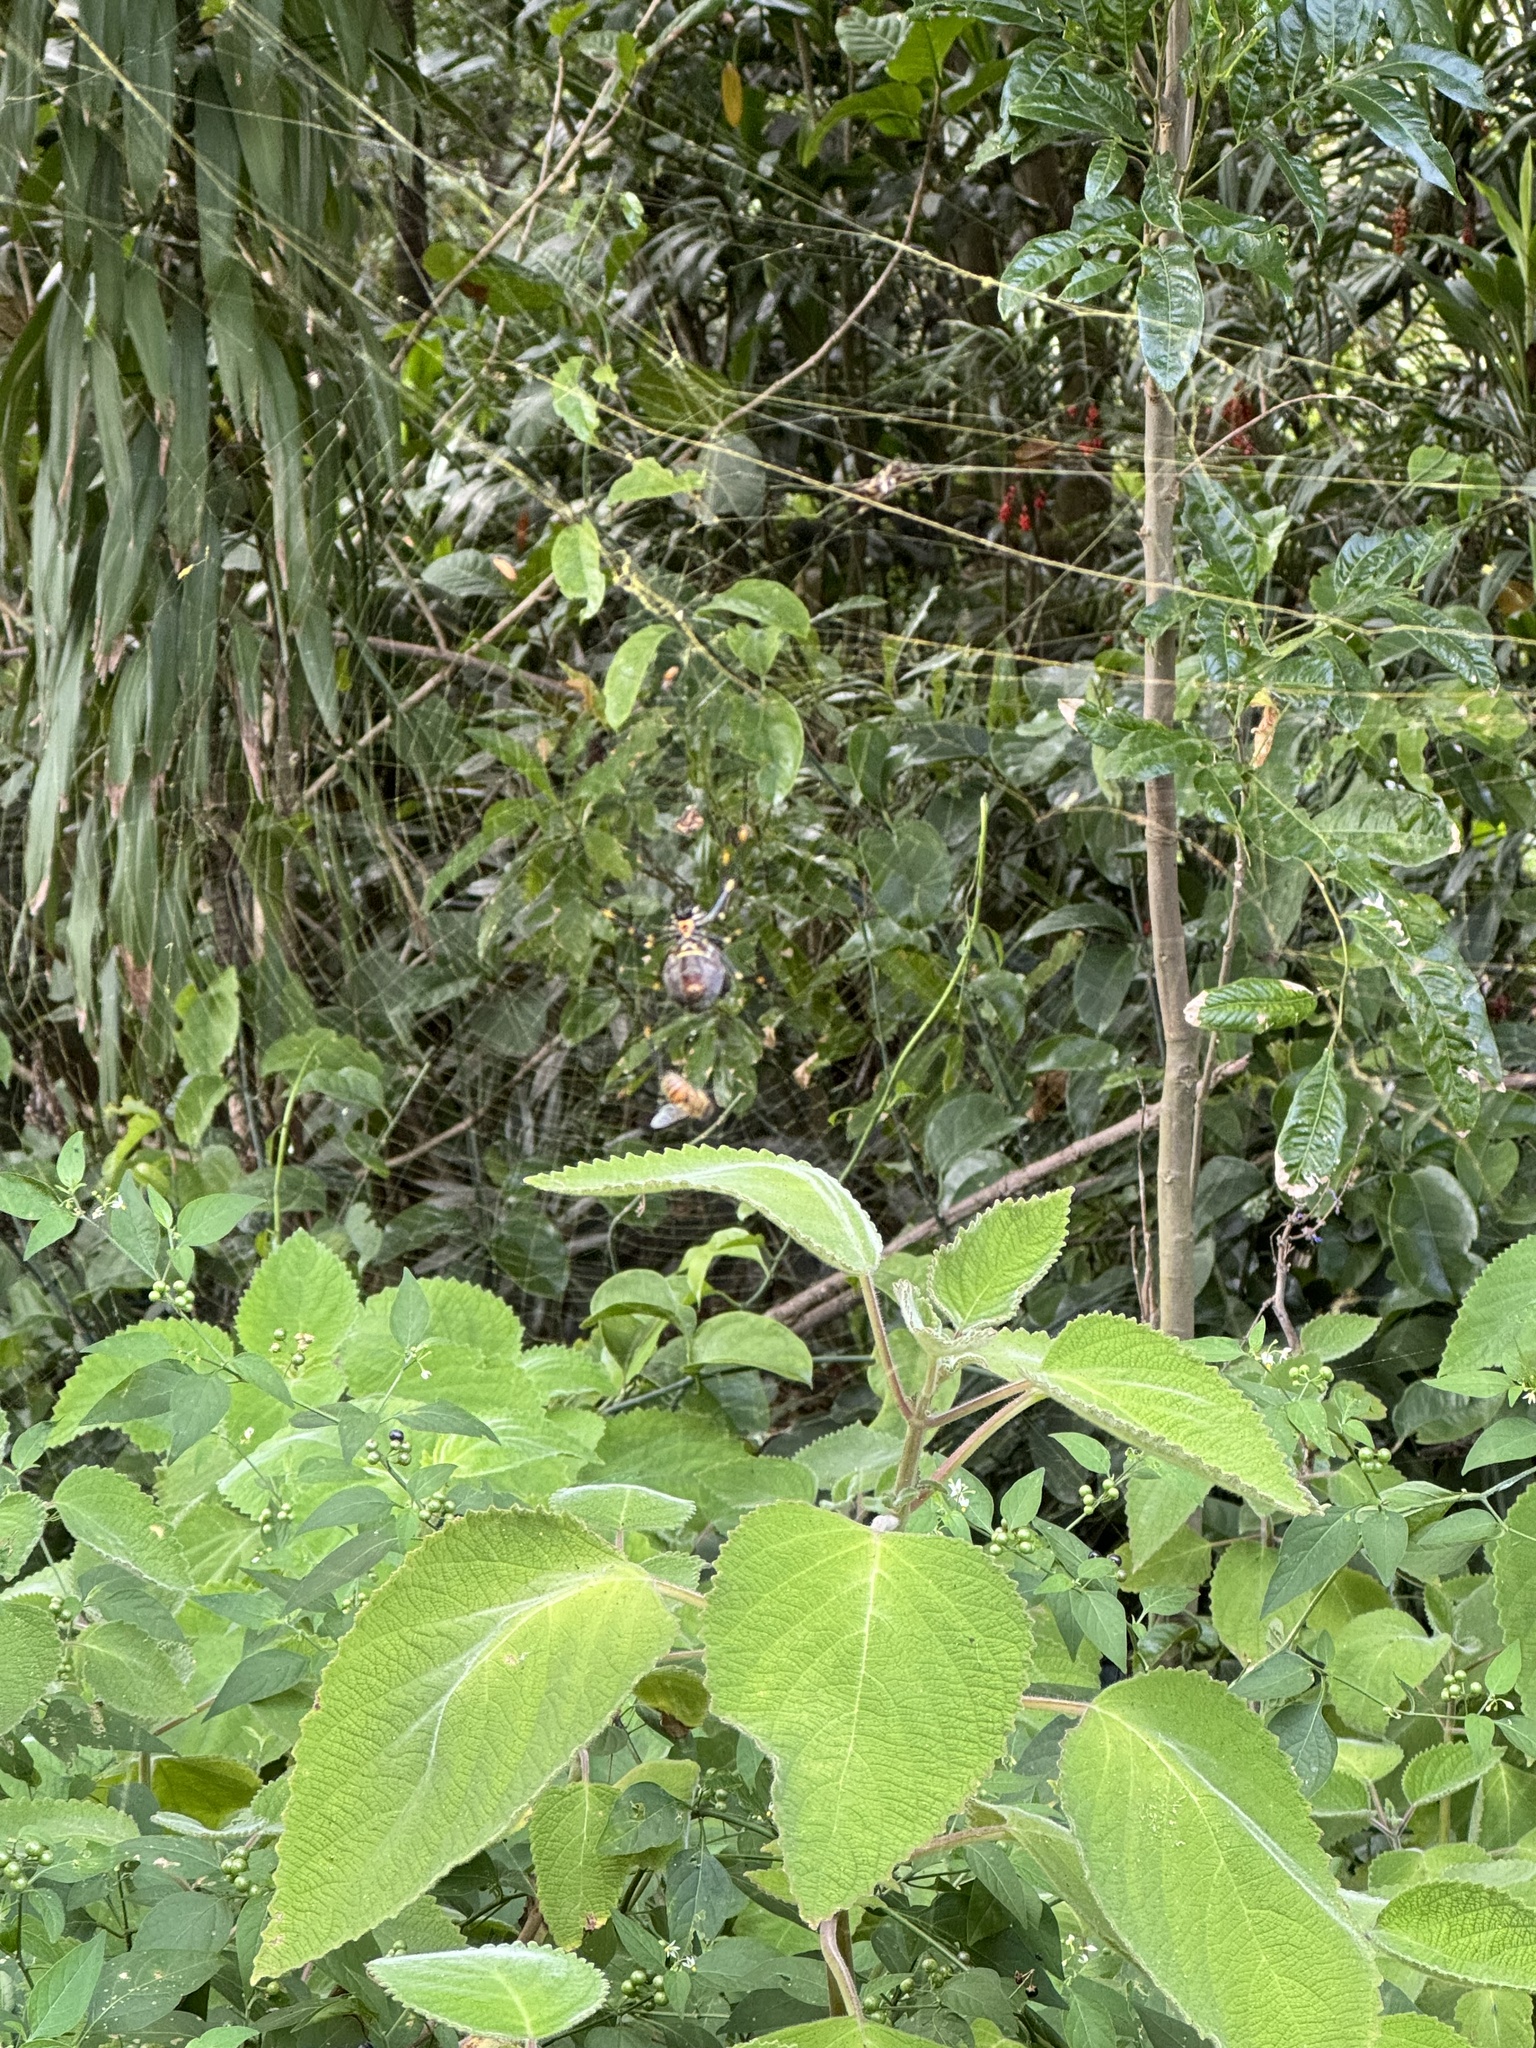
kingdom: Animalia
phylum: Arthropoda
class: Arachnida
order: Araneae
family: Araneidae
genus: Trichonephila
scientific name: Trichonephila plumipes
